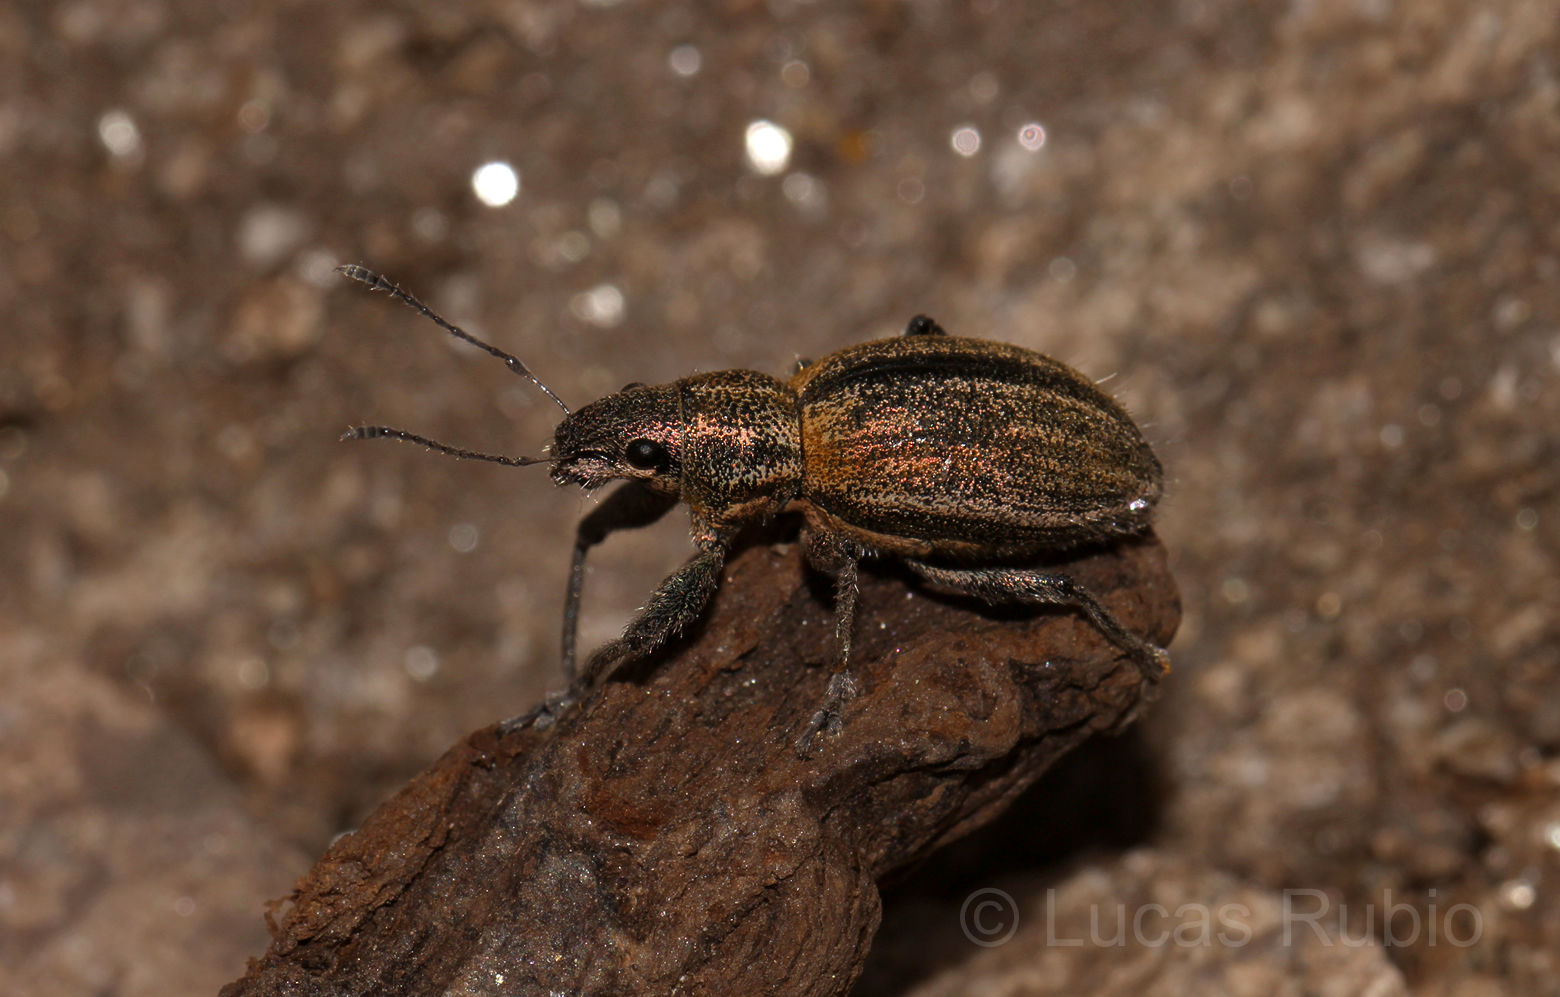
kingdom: Animalia
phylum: Arthropoda
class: Insecta
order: Coleoptera
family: Curculionidae
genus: Naupactus
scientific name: Naupactus verecundus
